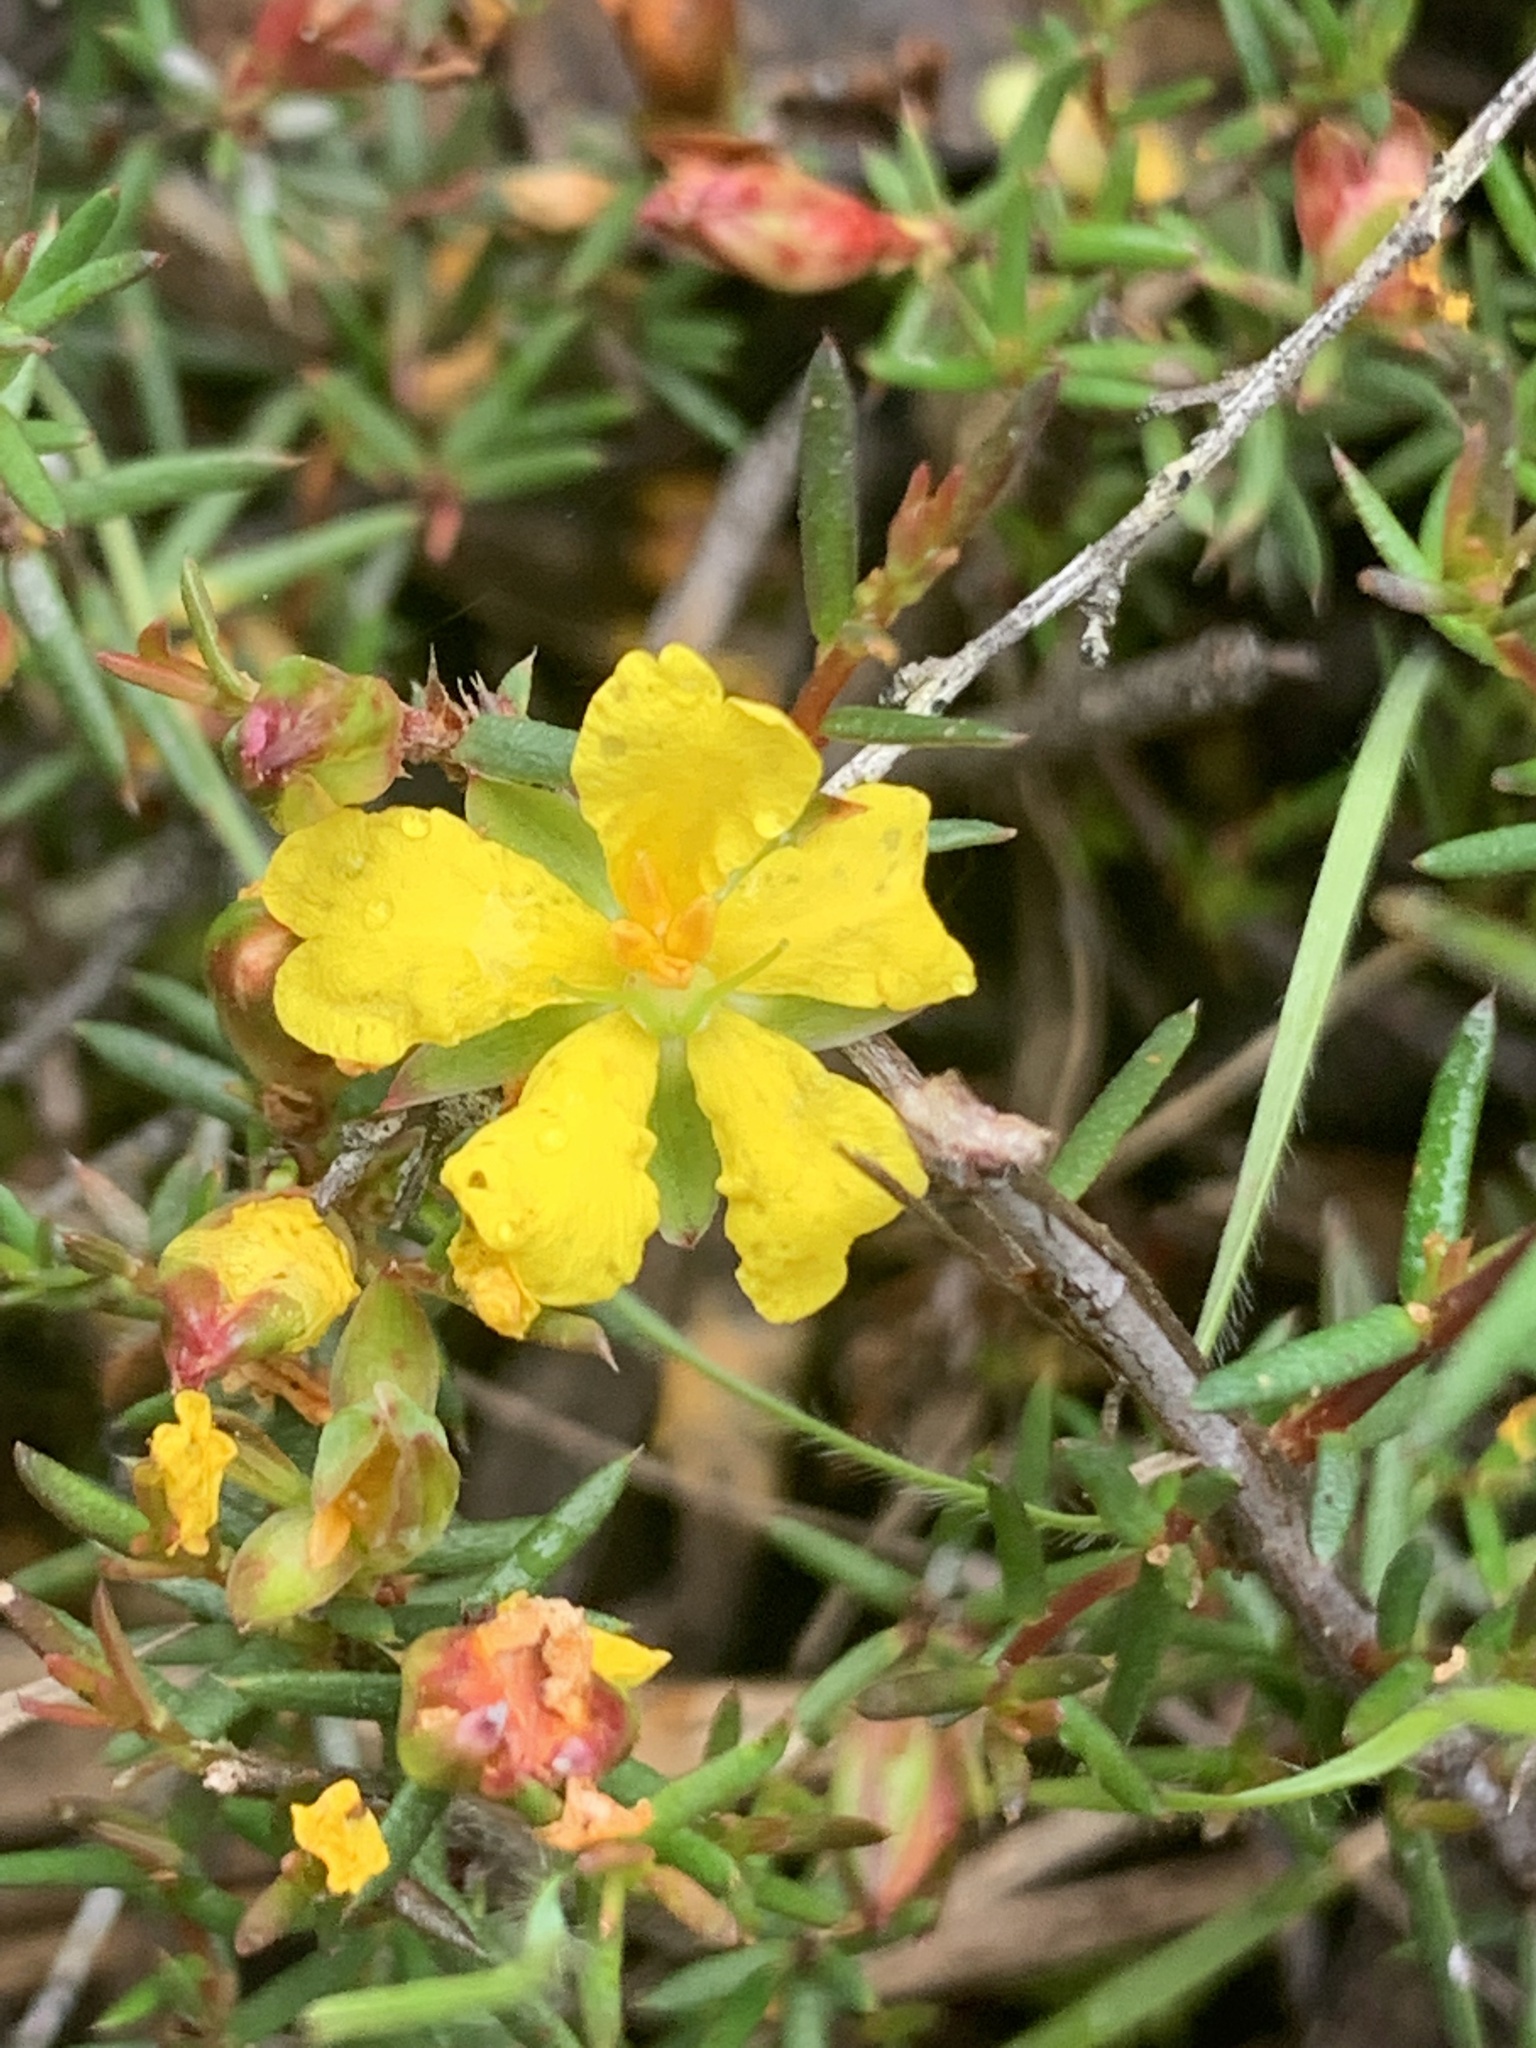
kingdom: Plantae
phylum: Tracheophyta
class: Magnoliopsida
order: Dilleniales
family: Dilleniaceae
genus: Hibbertia
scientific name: Hibbertia exutiacies
